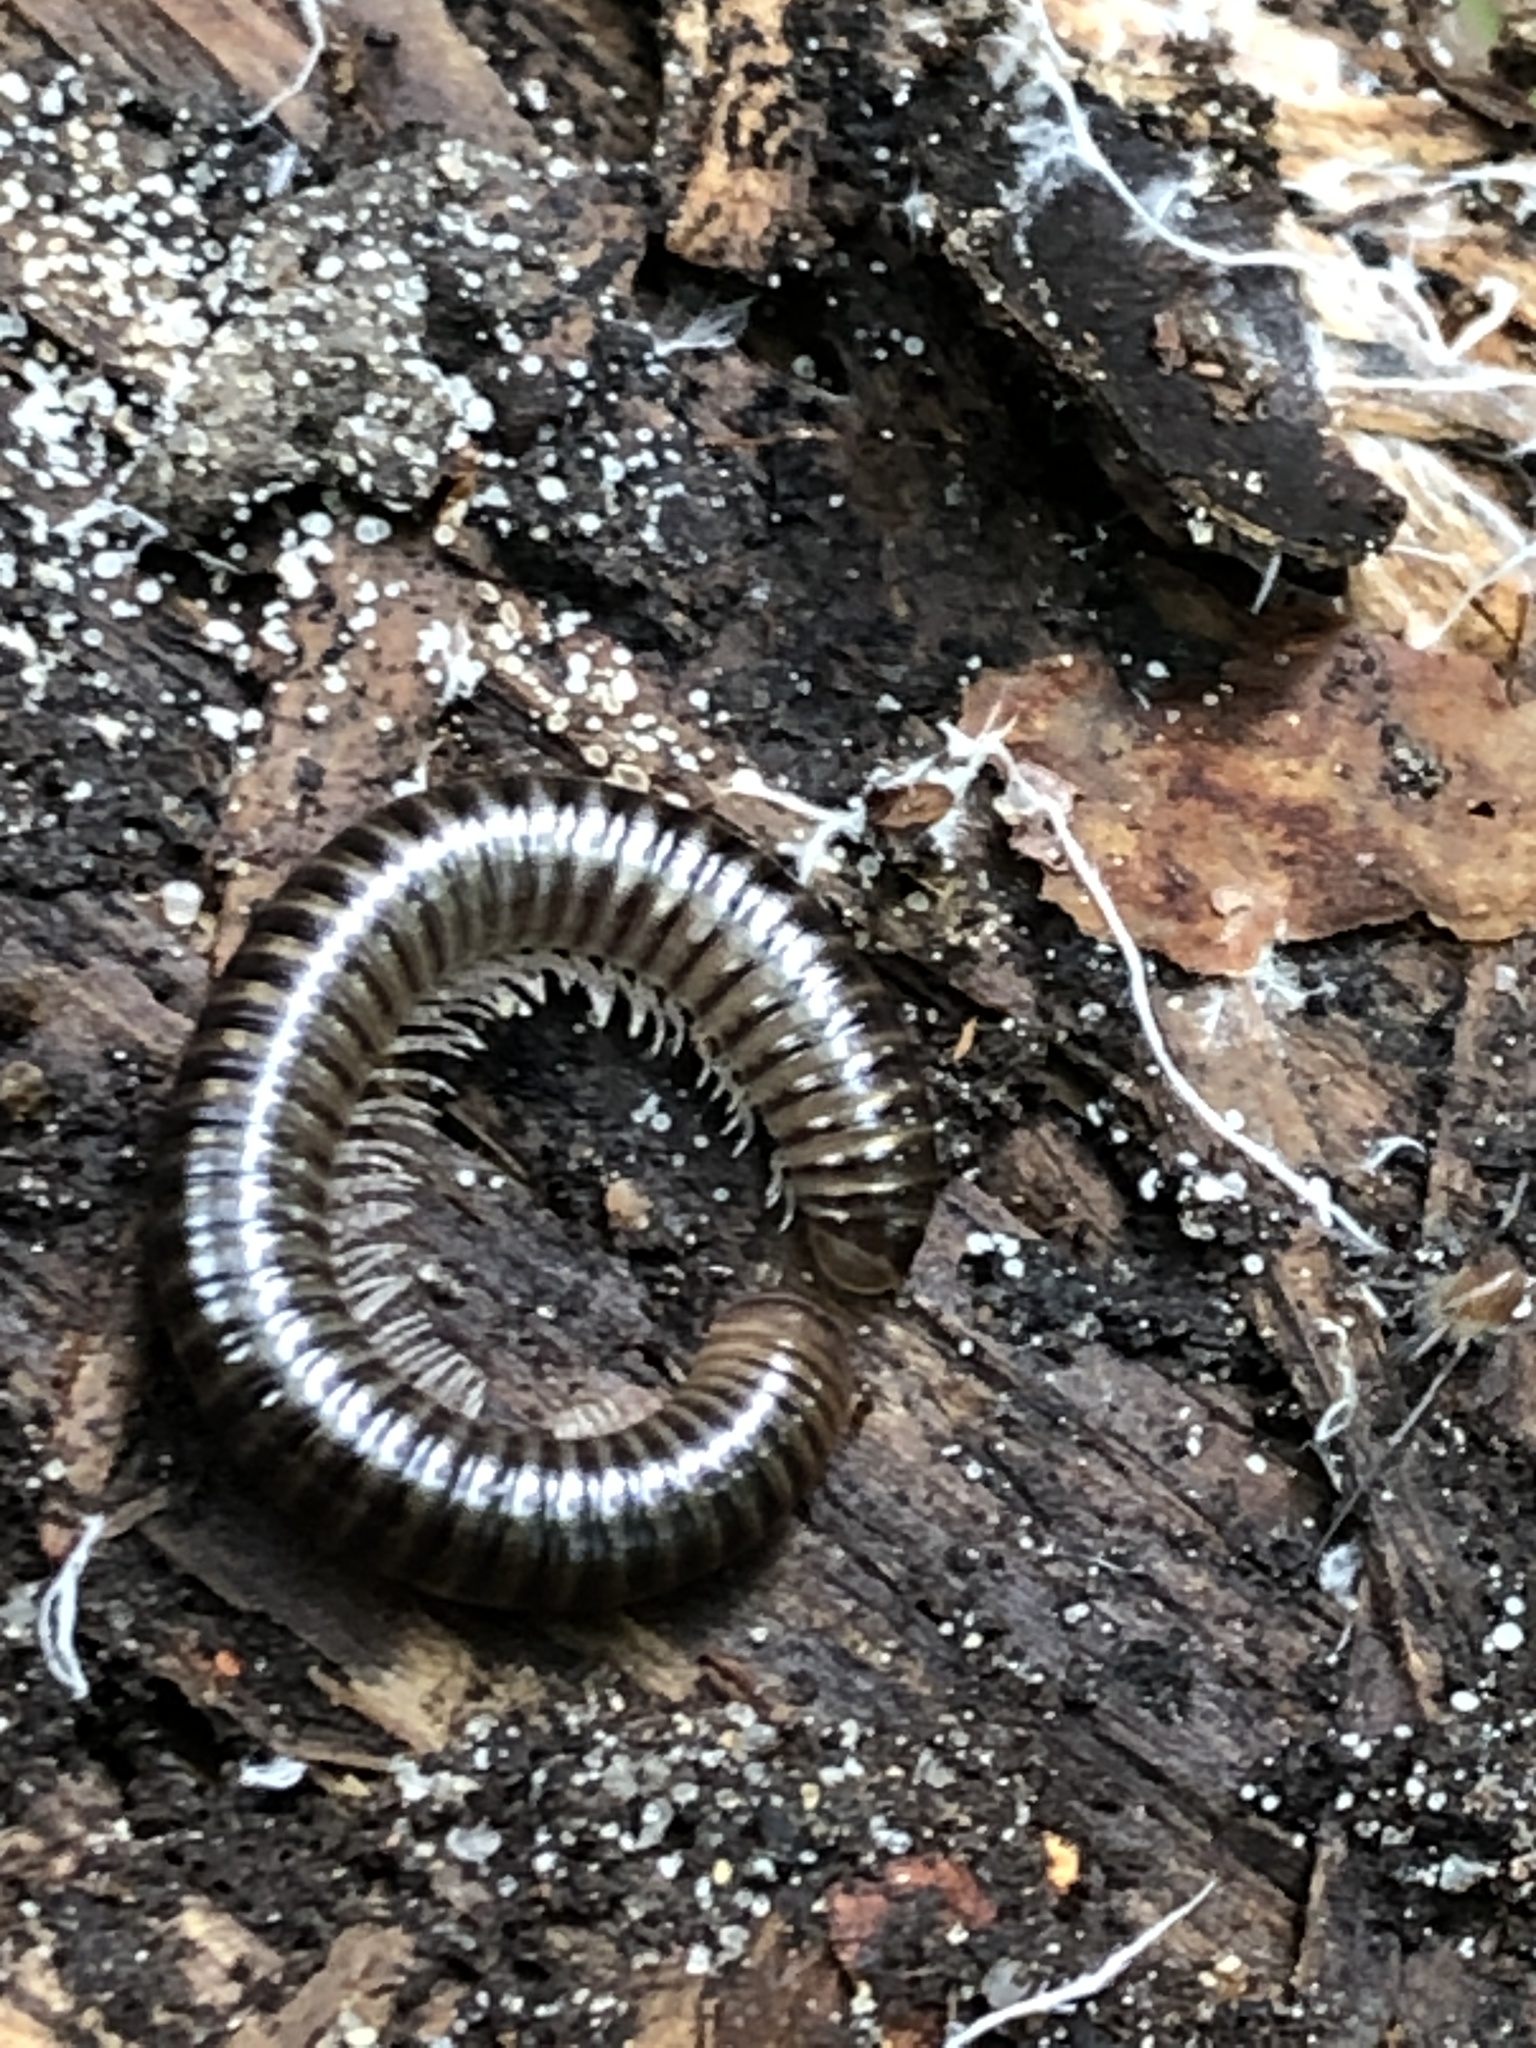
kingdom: Animalia
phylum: Arthropoda
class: Diplopoda
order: Julida
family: Julidae
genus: Cylindroiulus
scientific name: Cylindroiulus caeruleocinctus
